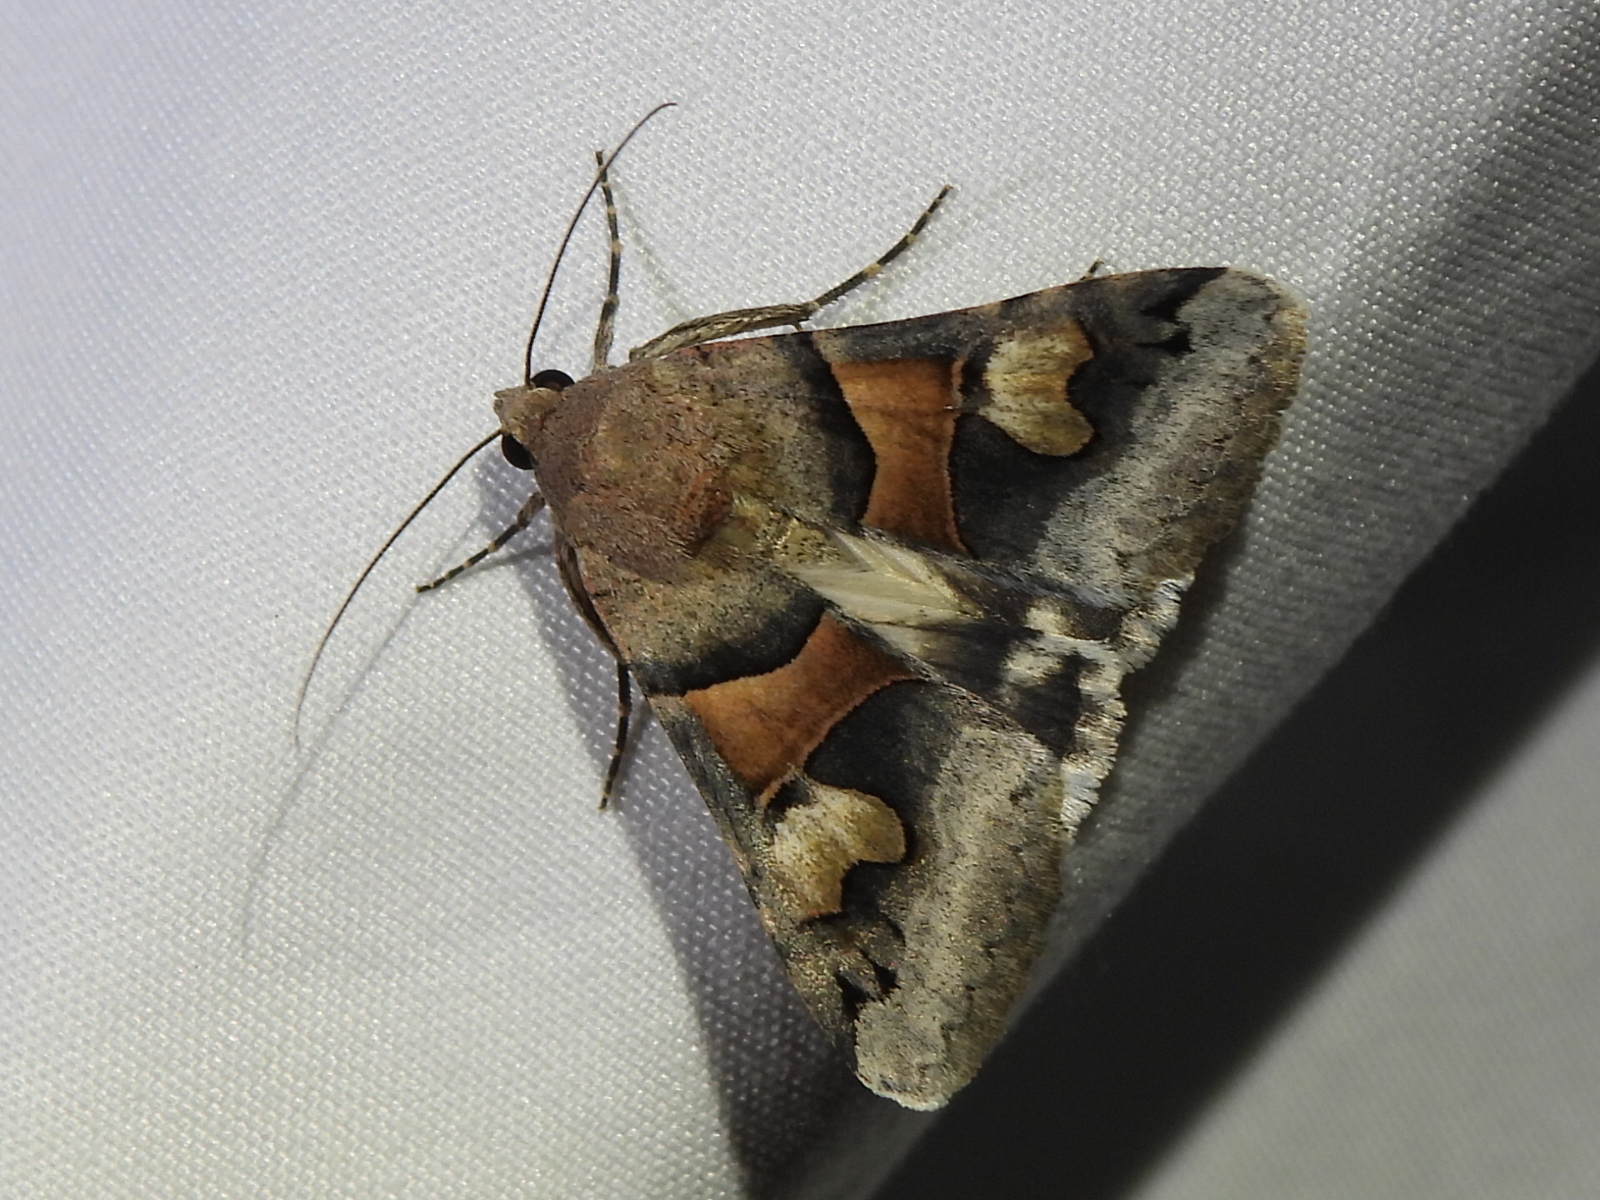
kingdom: Animalia
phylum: Arthropoda
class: Insecta
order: Lepidoptera
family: Erebidae
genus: Drasteria
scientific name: Drasteria pallescens
